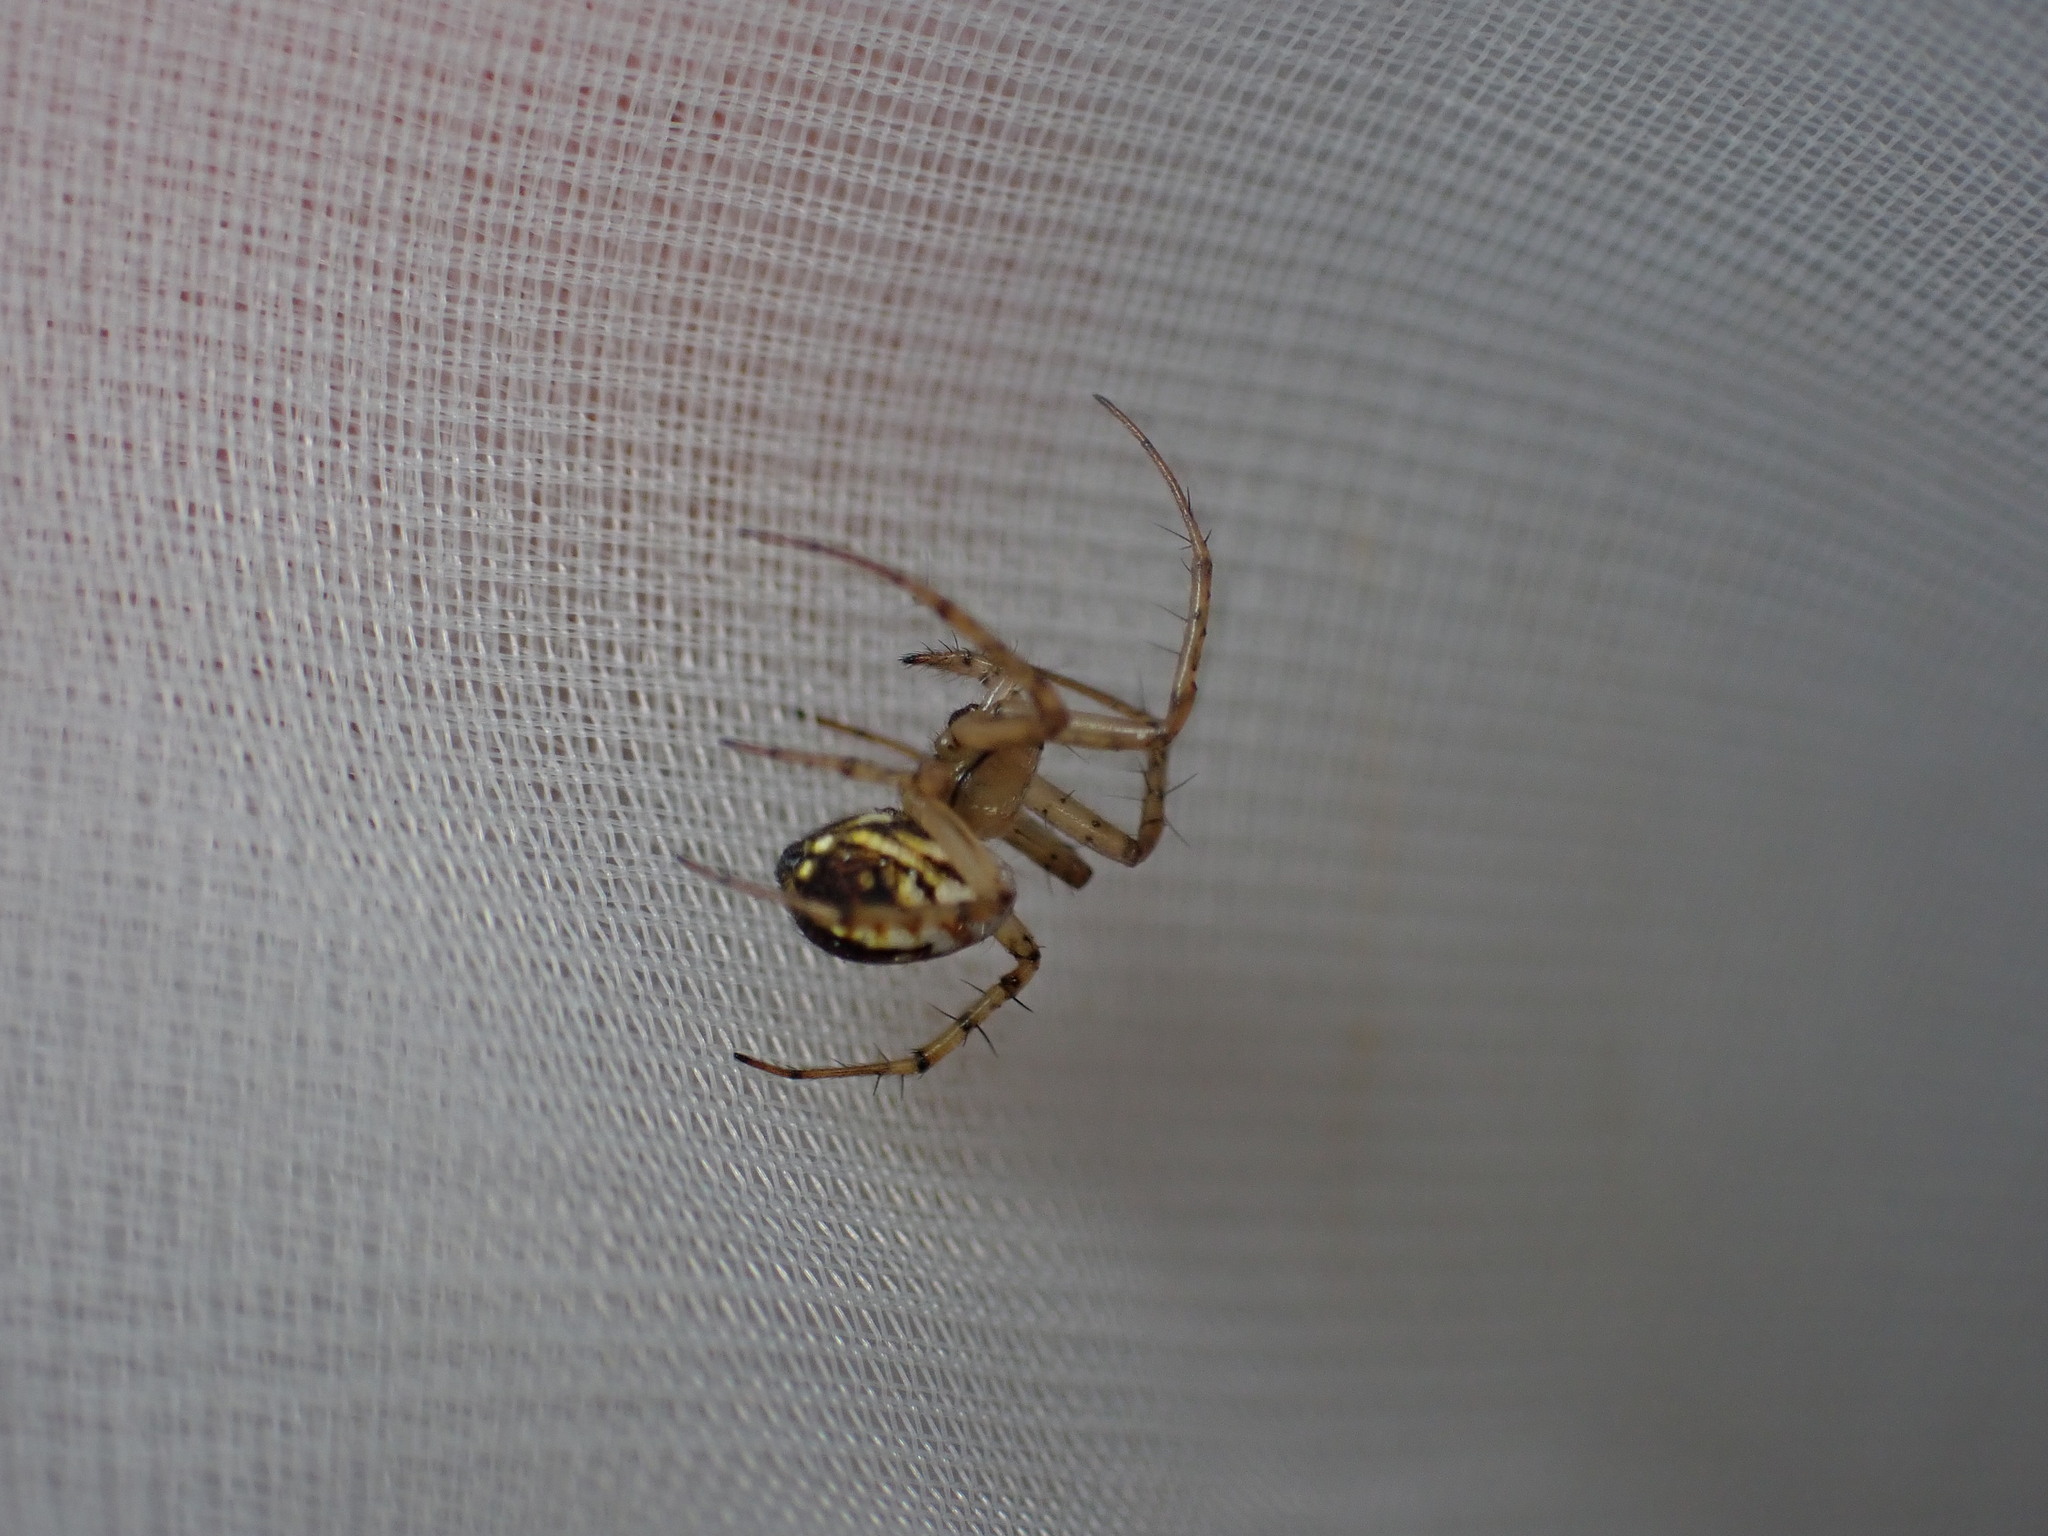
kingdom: Animalia
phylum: Arthropoda
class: Arachnida
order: Araneae
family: Araneidae
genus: Mangora
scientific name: Mangora acalypha
